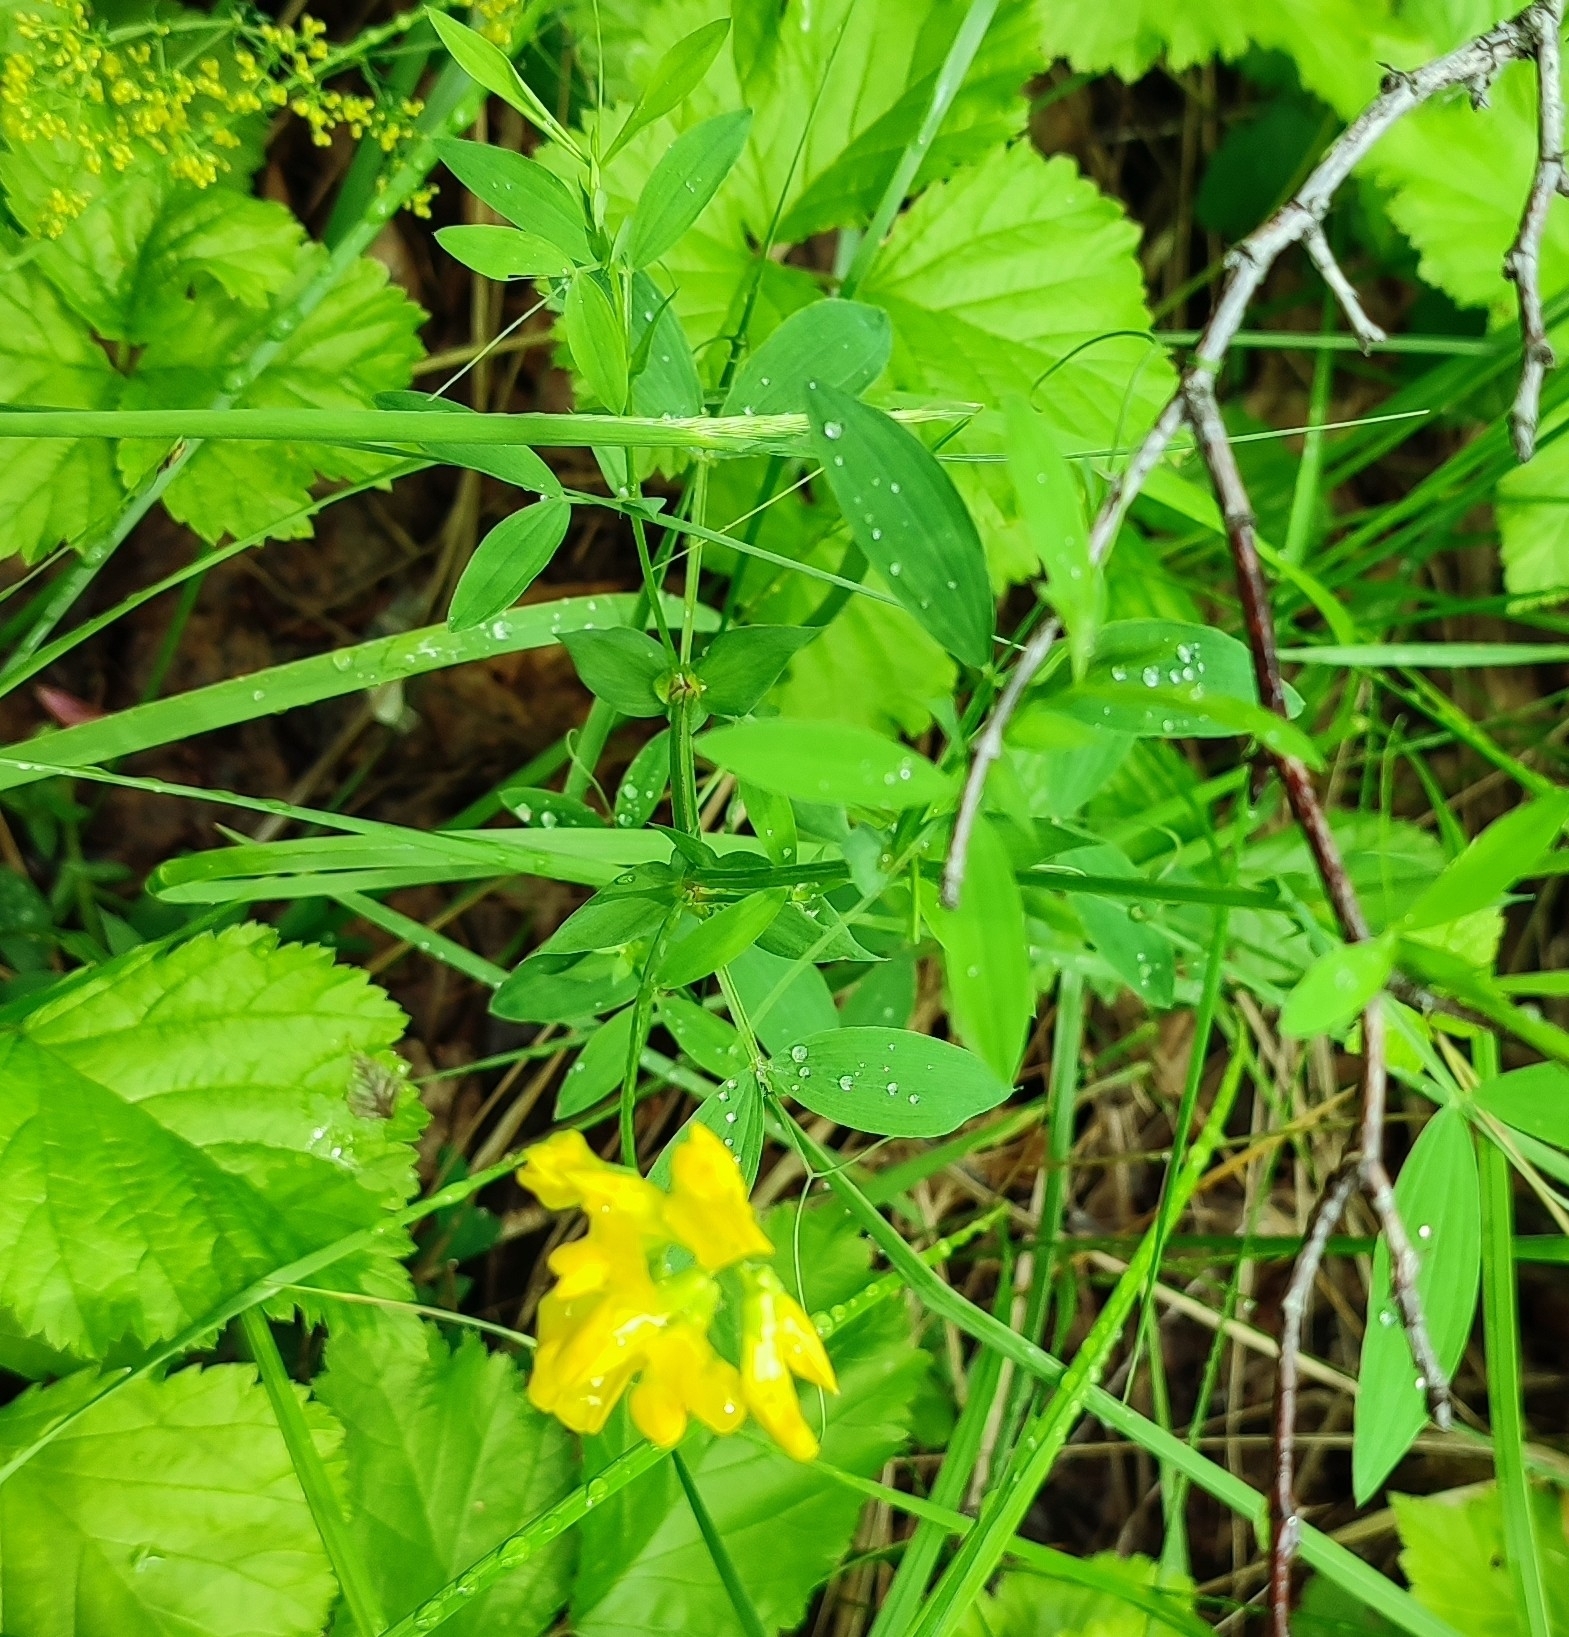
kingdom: Plantae
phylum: Tracheophyta
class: Magnoliopsida
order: Fabales
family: Fabaceae
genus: Lathyrus
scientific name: Lathyrus pratensis
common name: Meadow vetchling
